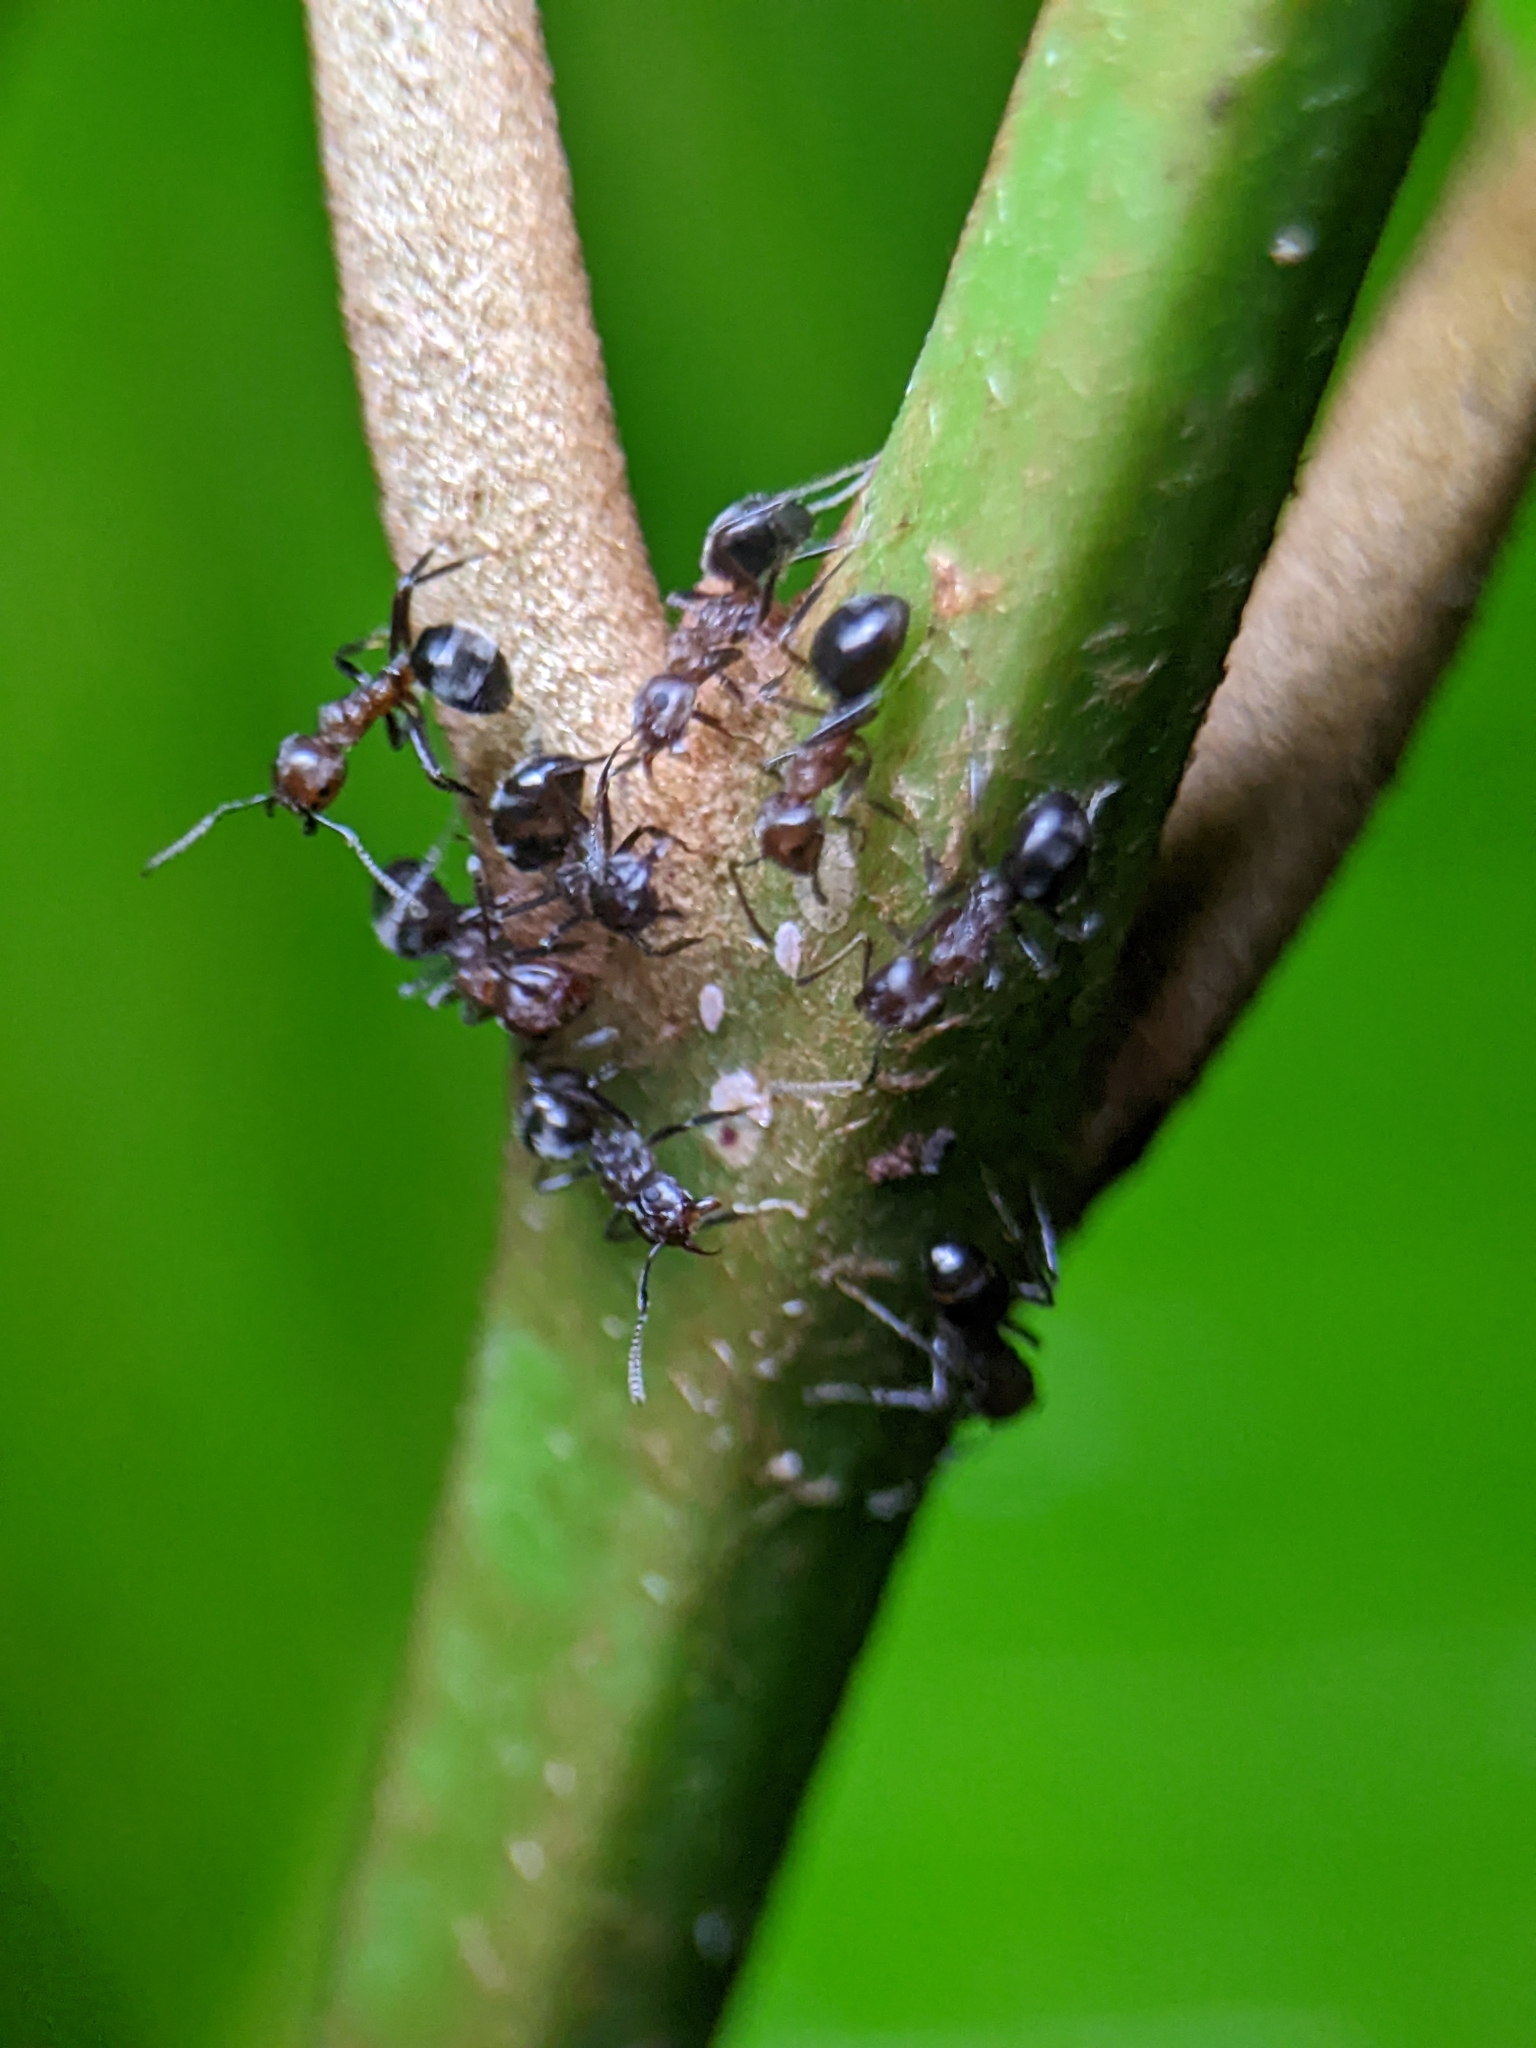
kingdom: Animalia
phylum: Arthropoda
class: Insecta
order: Hymenoptera
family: Formicidae
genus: Dolichoderus
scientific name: Dolichoderus thoracicus
